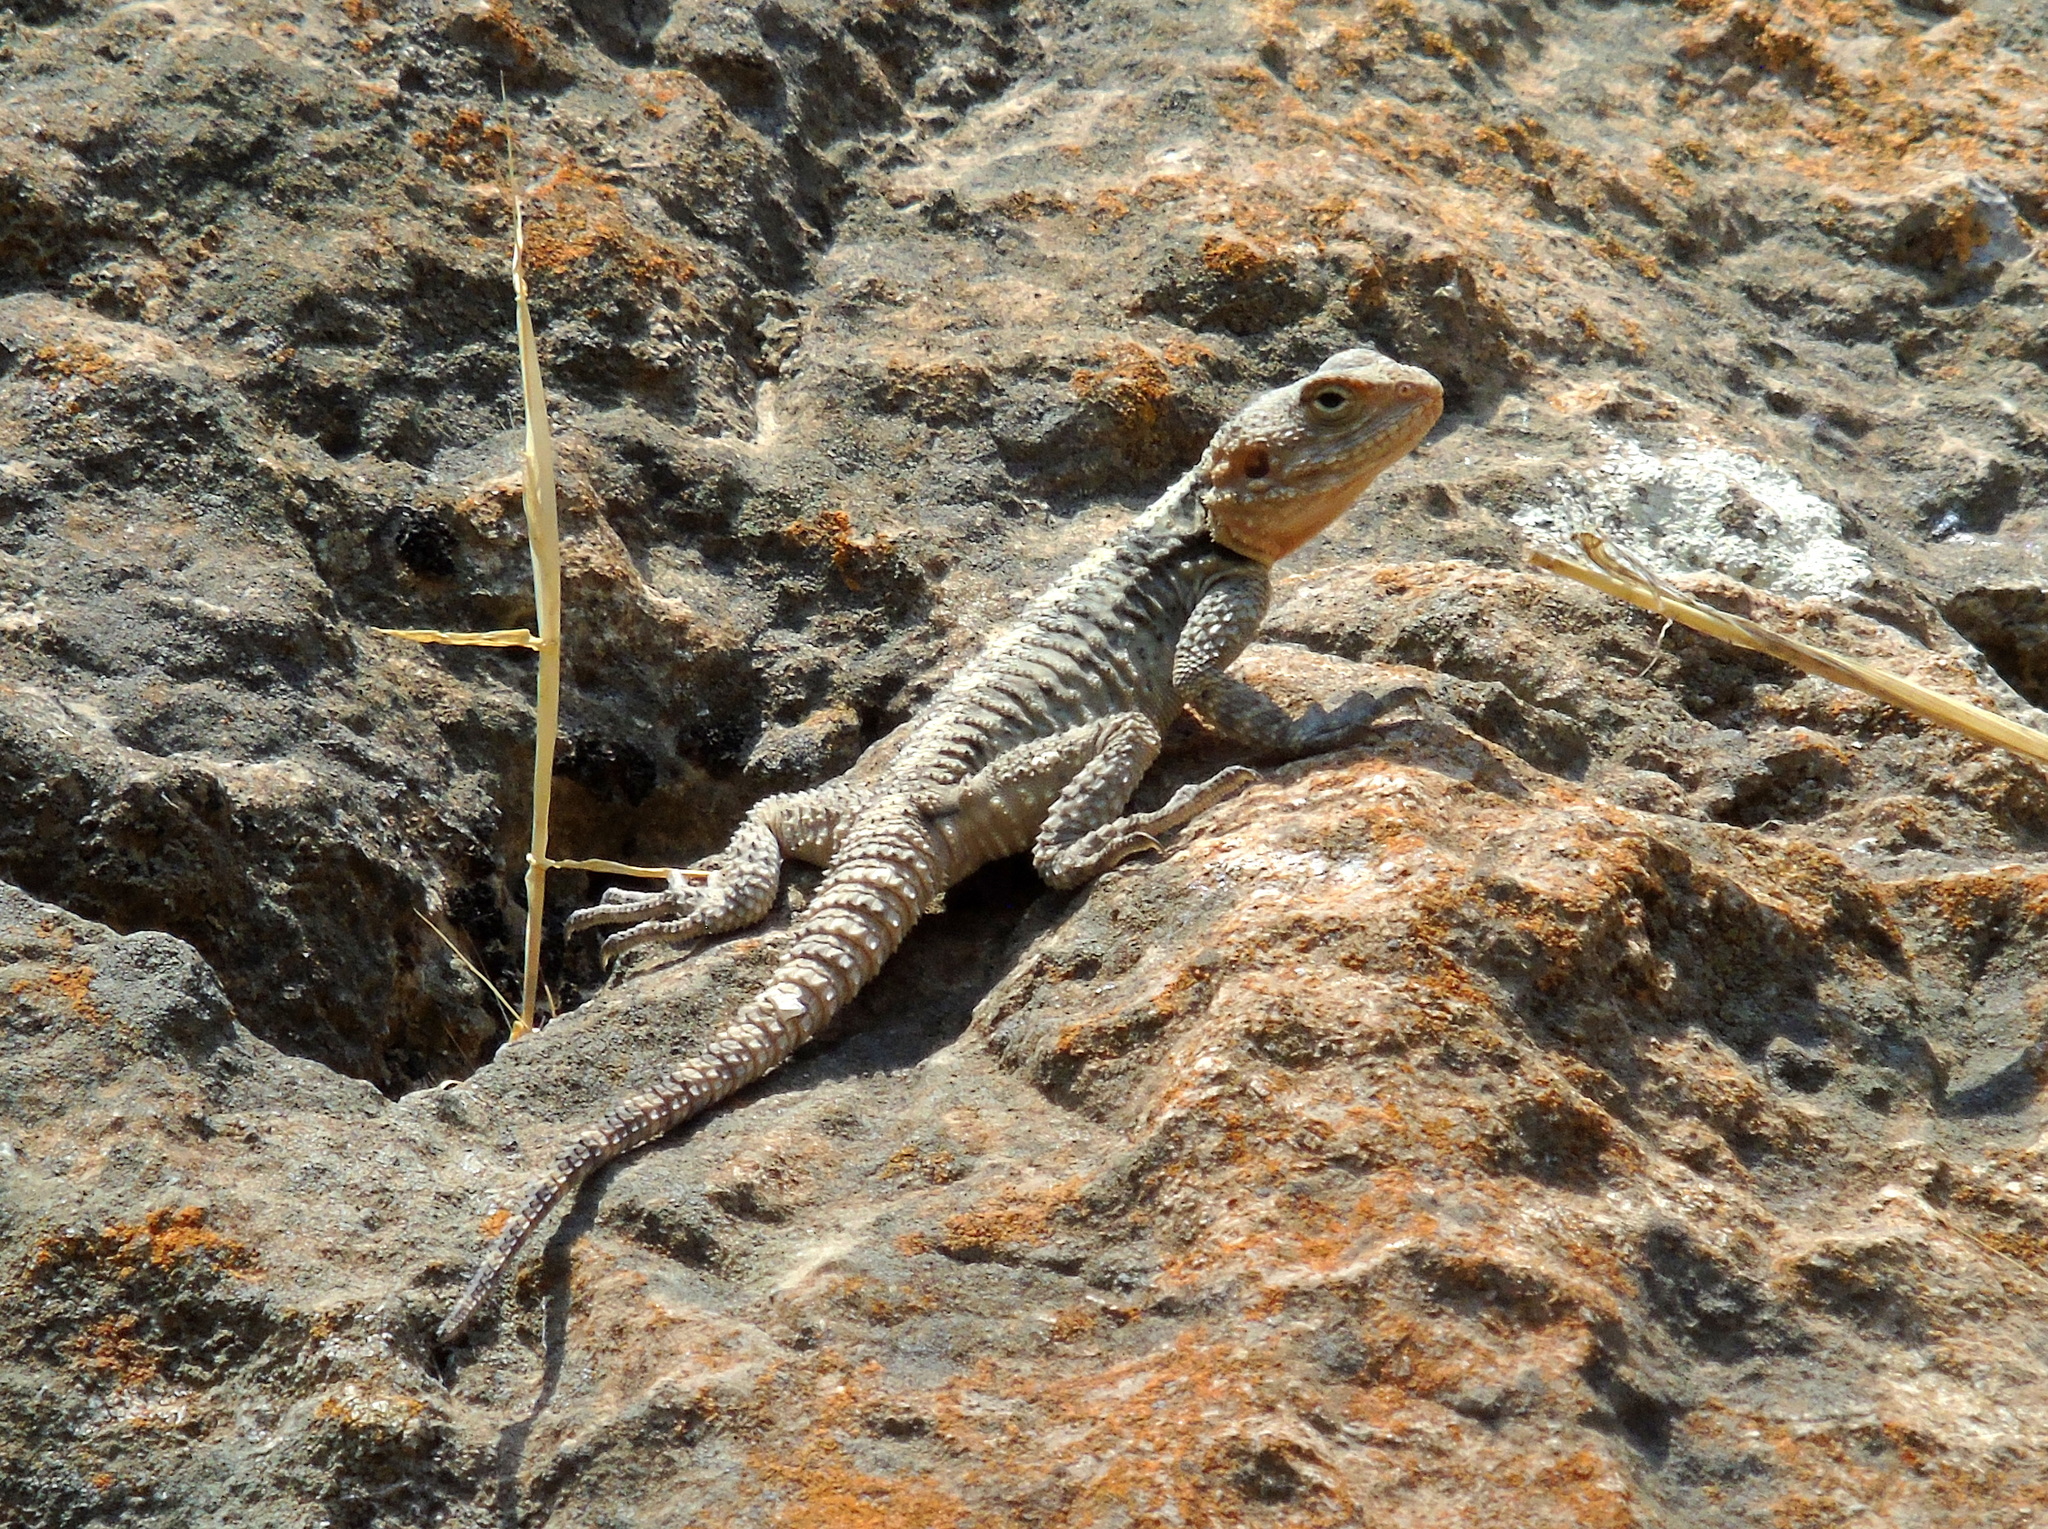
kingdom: Animalia
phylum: Chordata
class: Squamata
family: Agamidae
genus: Stellagama
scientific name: Stellagama stellio
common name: Starred agama
